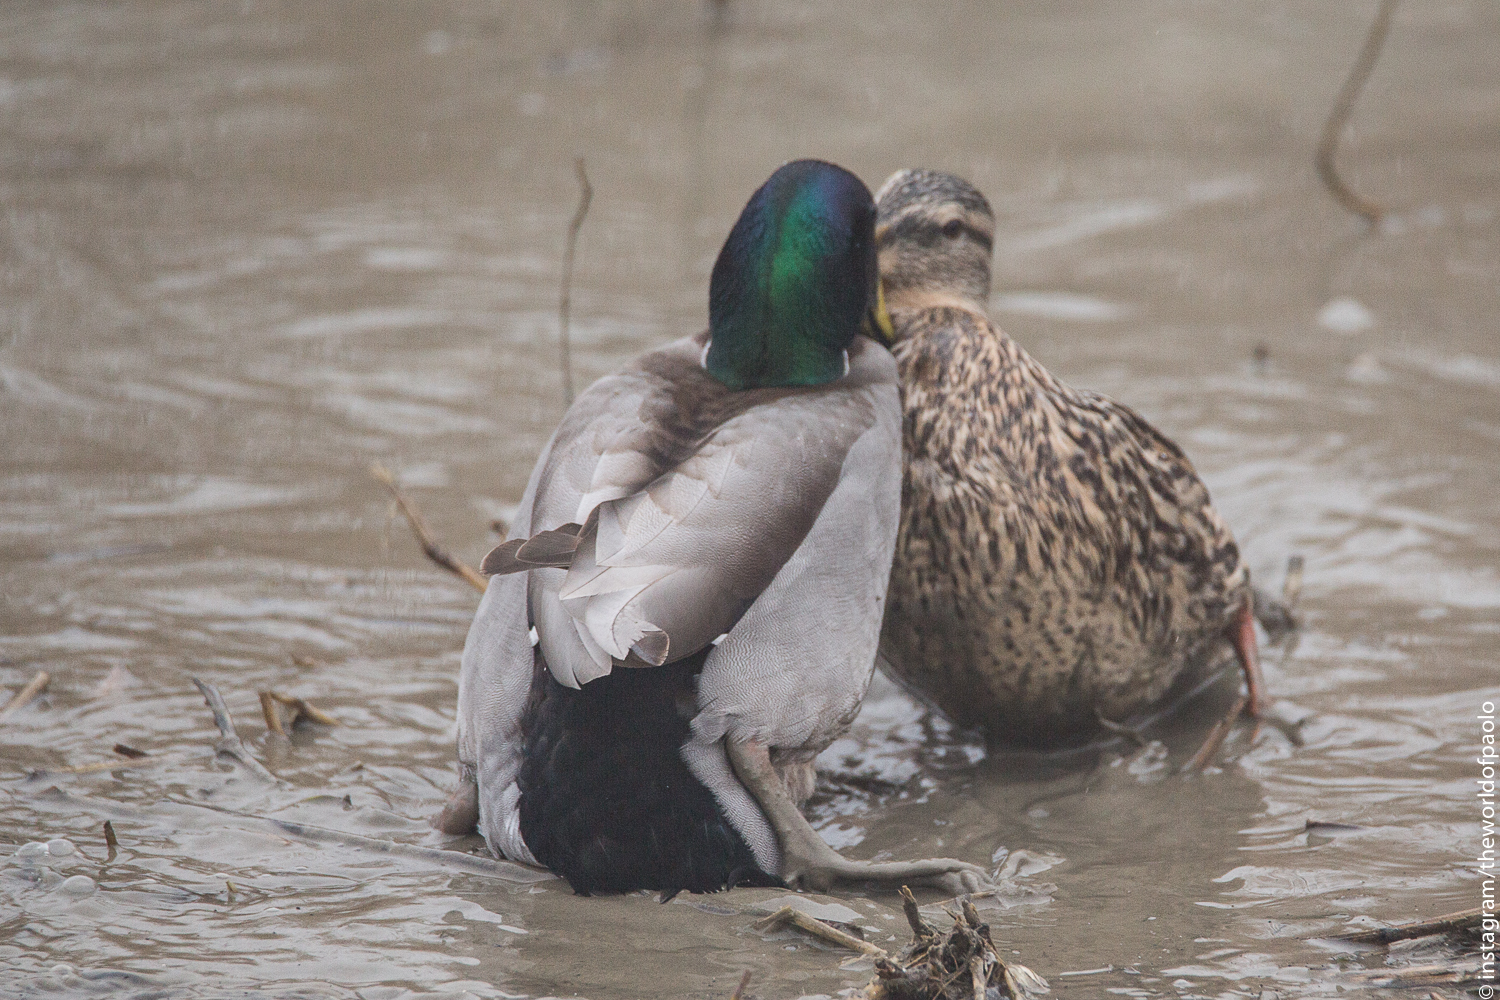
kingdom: Animalia
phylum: Chordata
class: Aves
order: Anseriformes
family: Anatidae
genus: Anas
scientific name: Anas platyrhynchos
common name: Mallard
